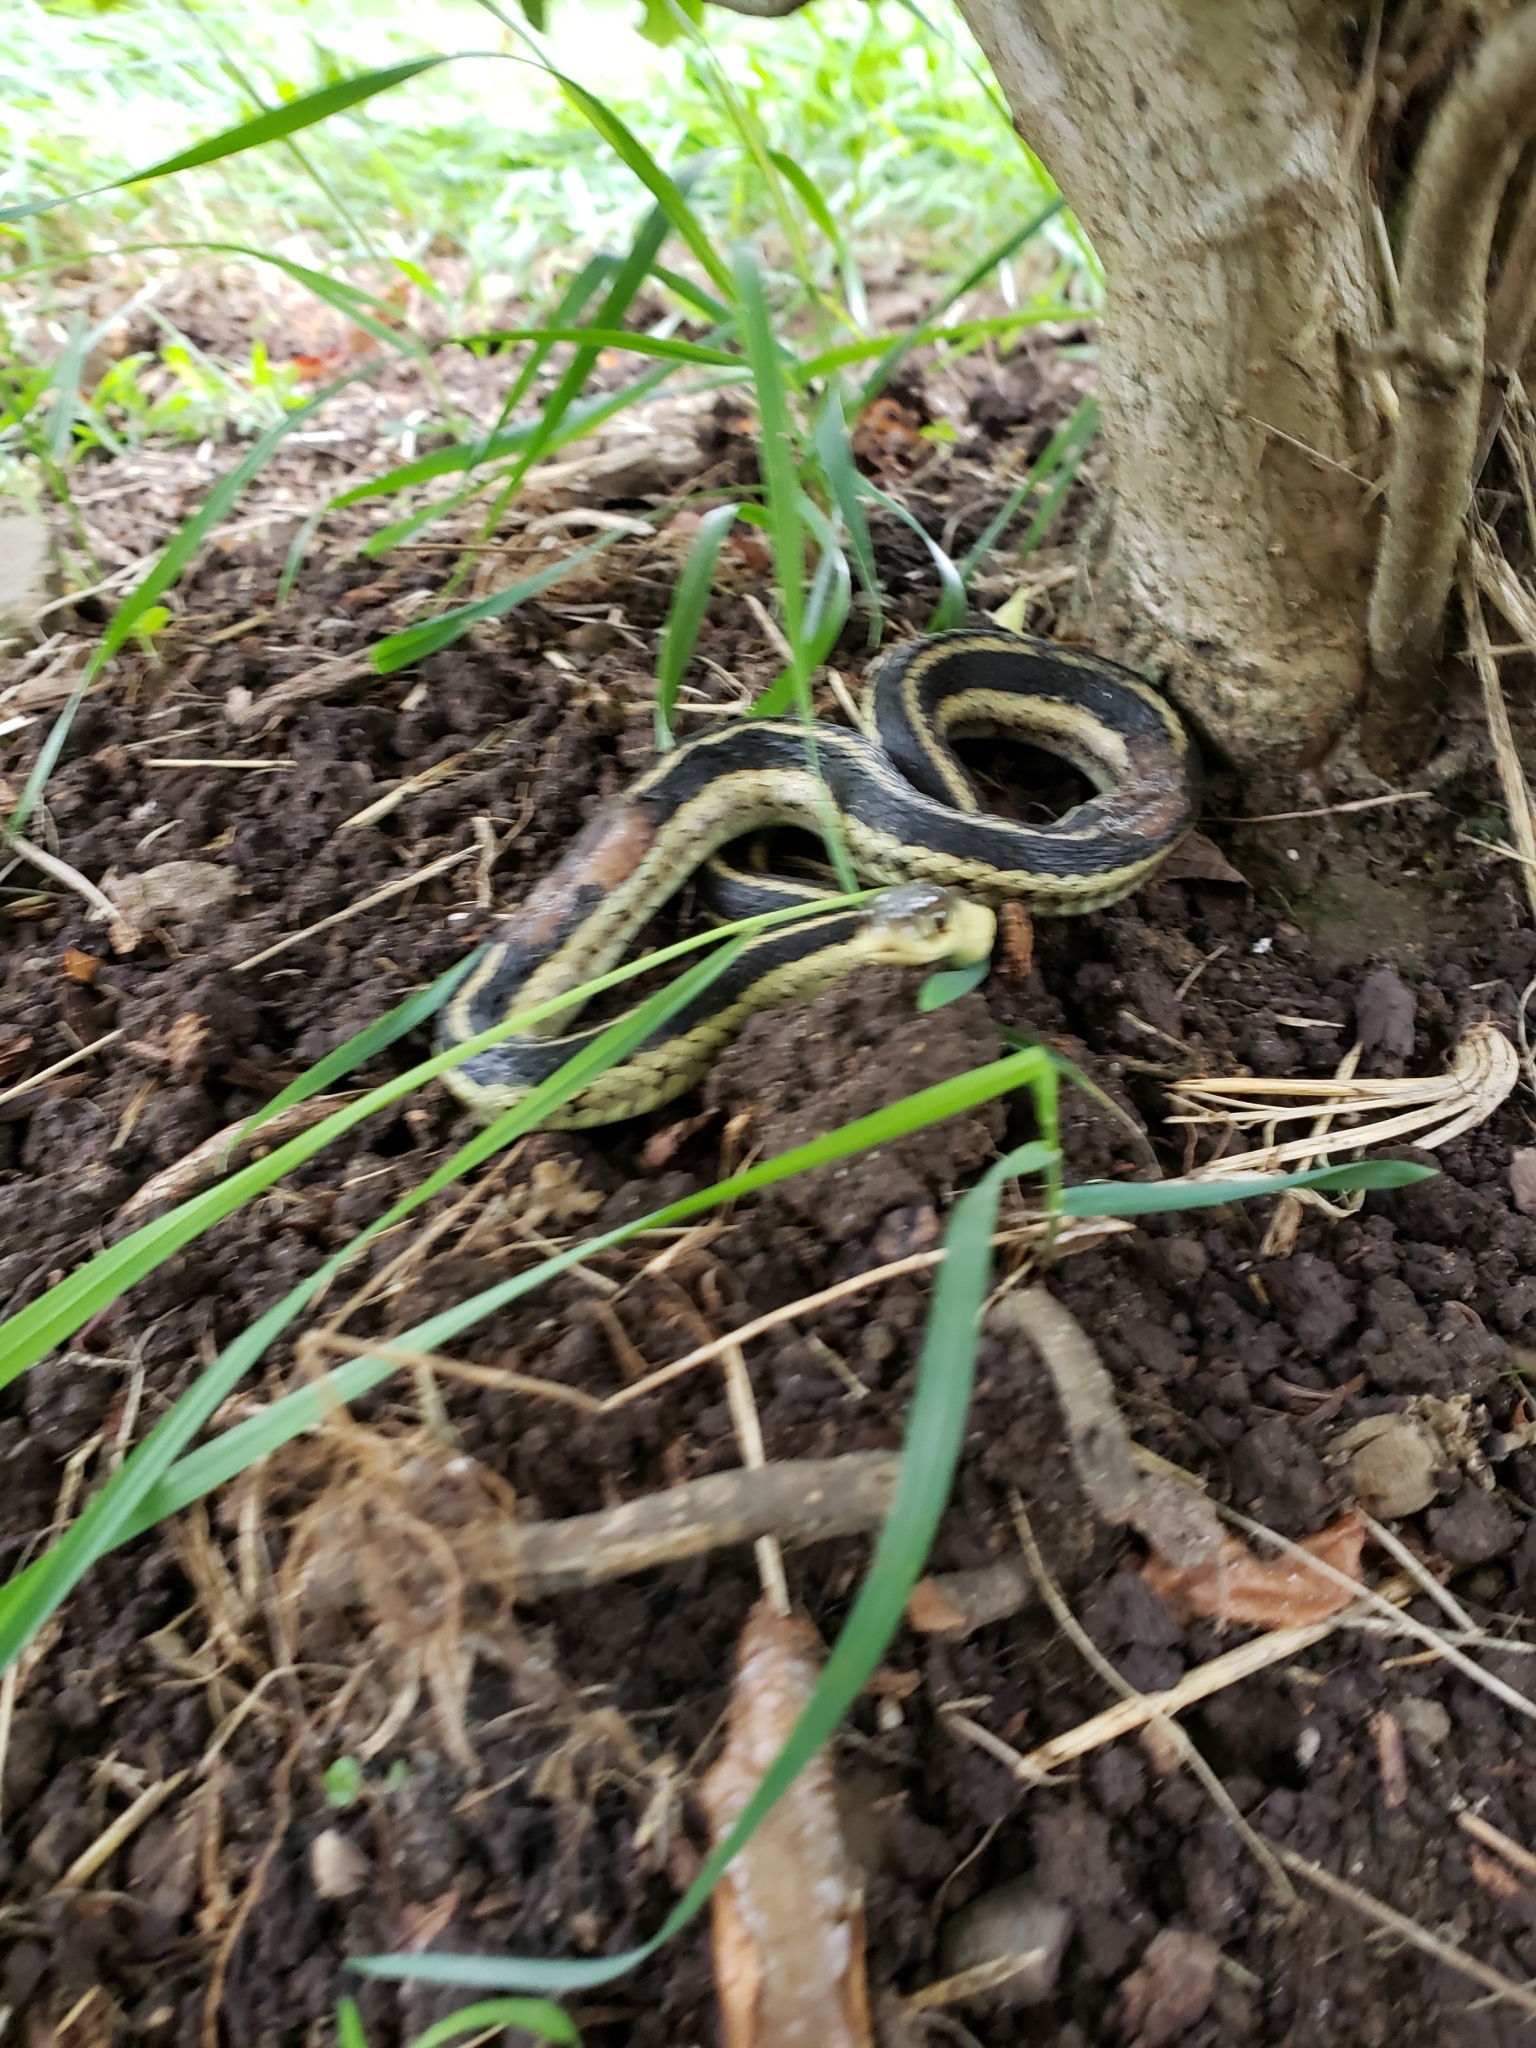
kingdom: Animalia
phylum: Chordata
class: Squamata
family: Colubridae
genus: Thamnophis
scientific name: Thamnophis sirtalis
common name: Common garter snake
